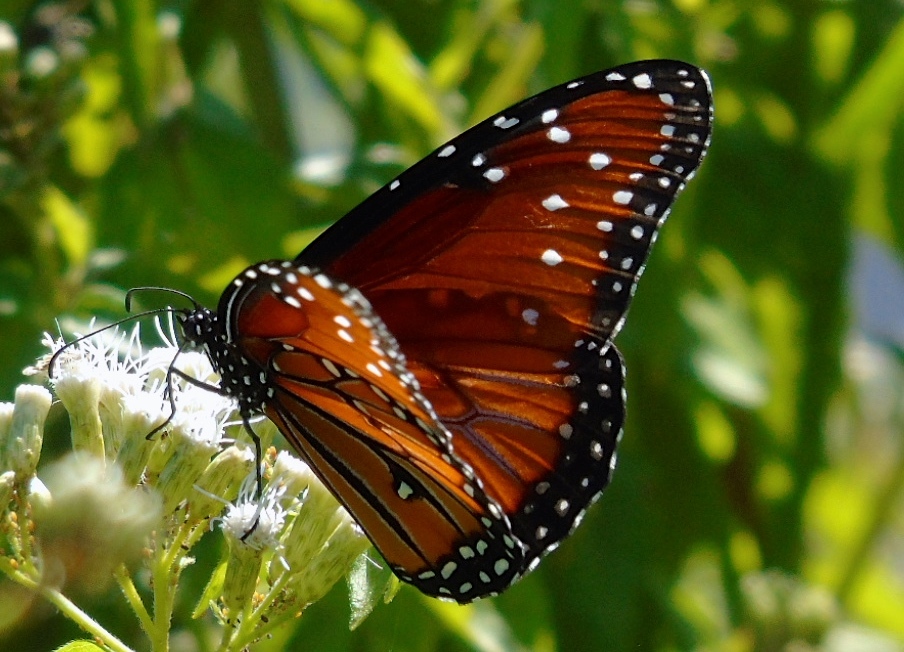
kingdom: Animalia
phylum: Arthropoda
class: Insecta
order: Lepidoptera
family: Nymphalidae
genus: Danaus
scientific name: Danaus gilippus
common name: Queen
